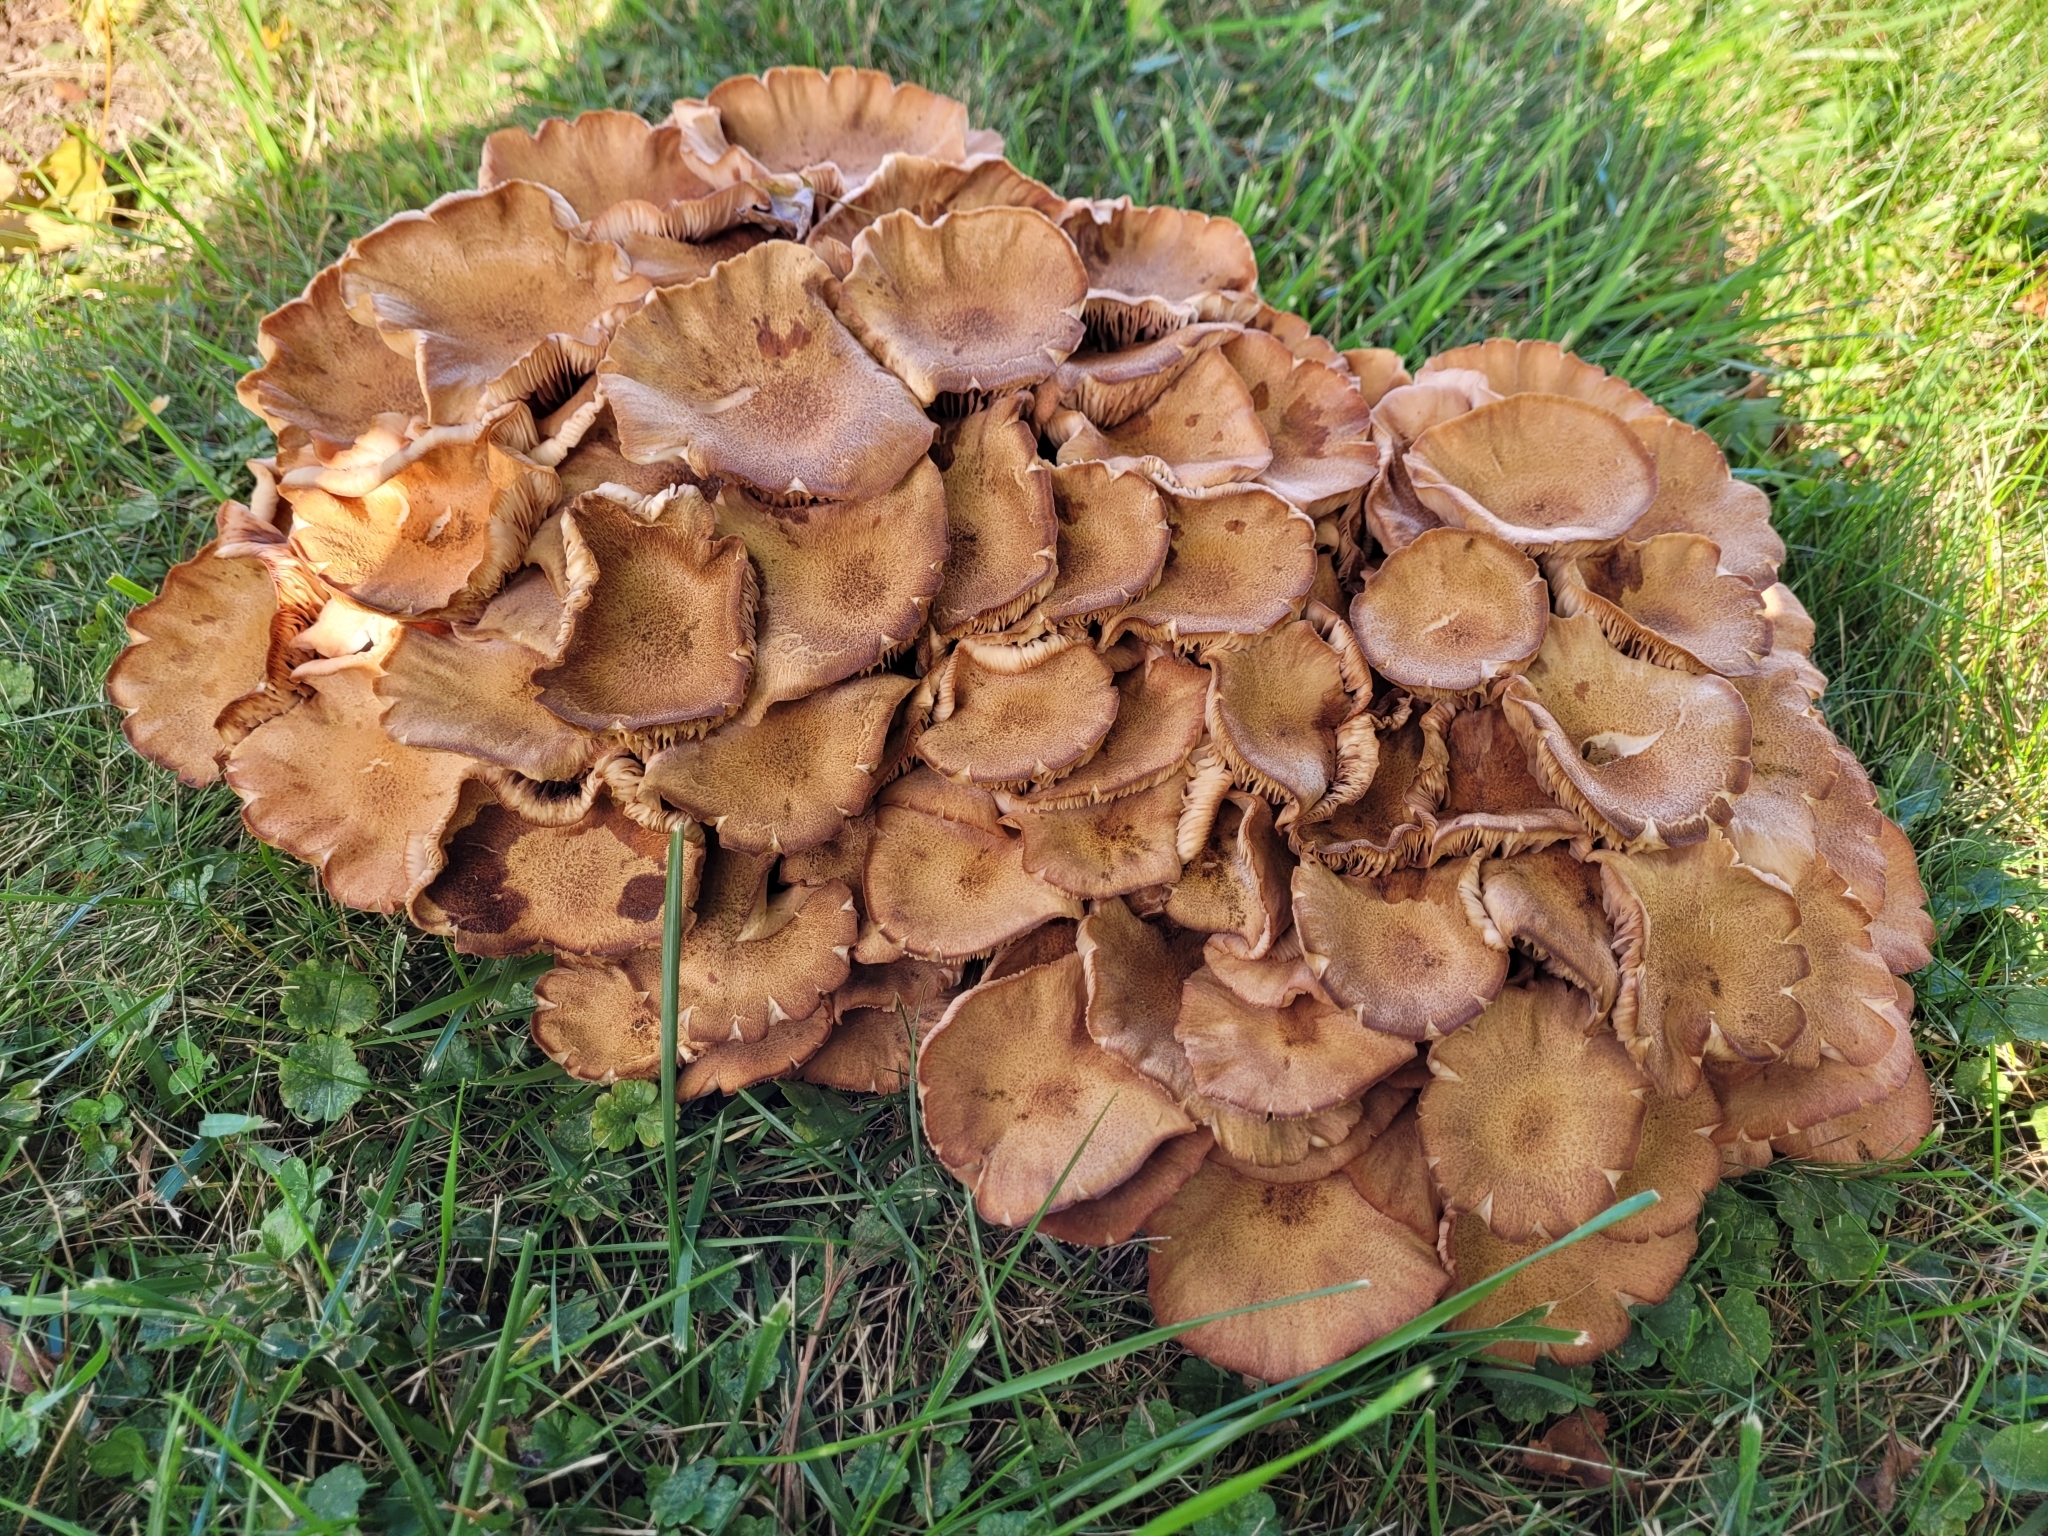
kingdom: Fungi
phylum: Basidiomycota
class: Agaricomycetes
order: Agaricales
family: Physalacriaceae
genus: Desarmillaria
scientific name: Desarmillaria caespitosa
